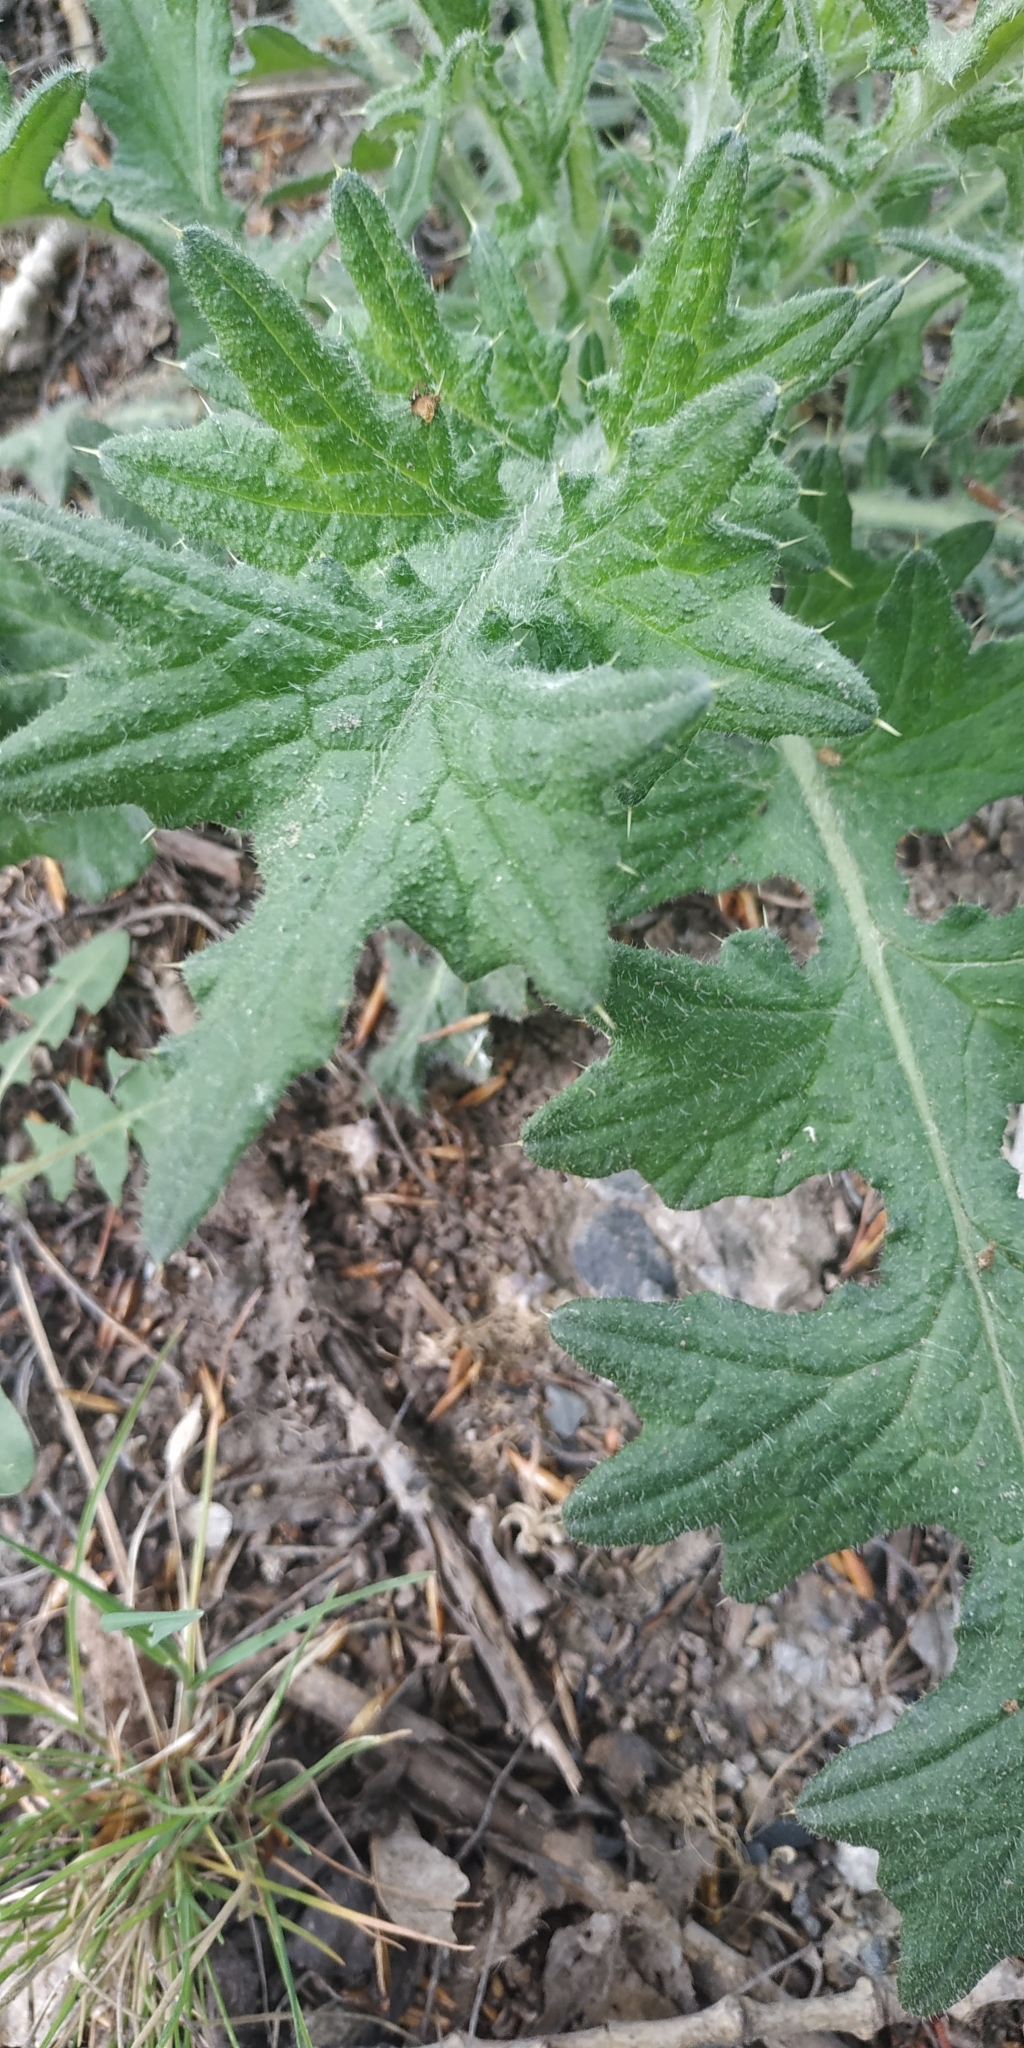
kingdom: Plantae
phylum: Tracheophyta
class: Magnoliopsida
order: Asterales
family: Asteraceae
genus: Cirsium
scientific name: Cirsium vulgare
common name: Bull thistle
